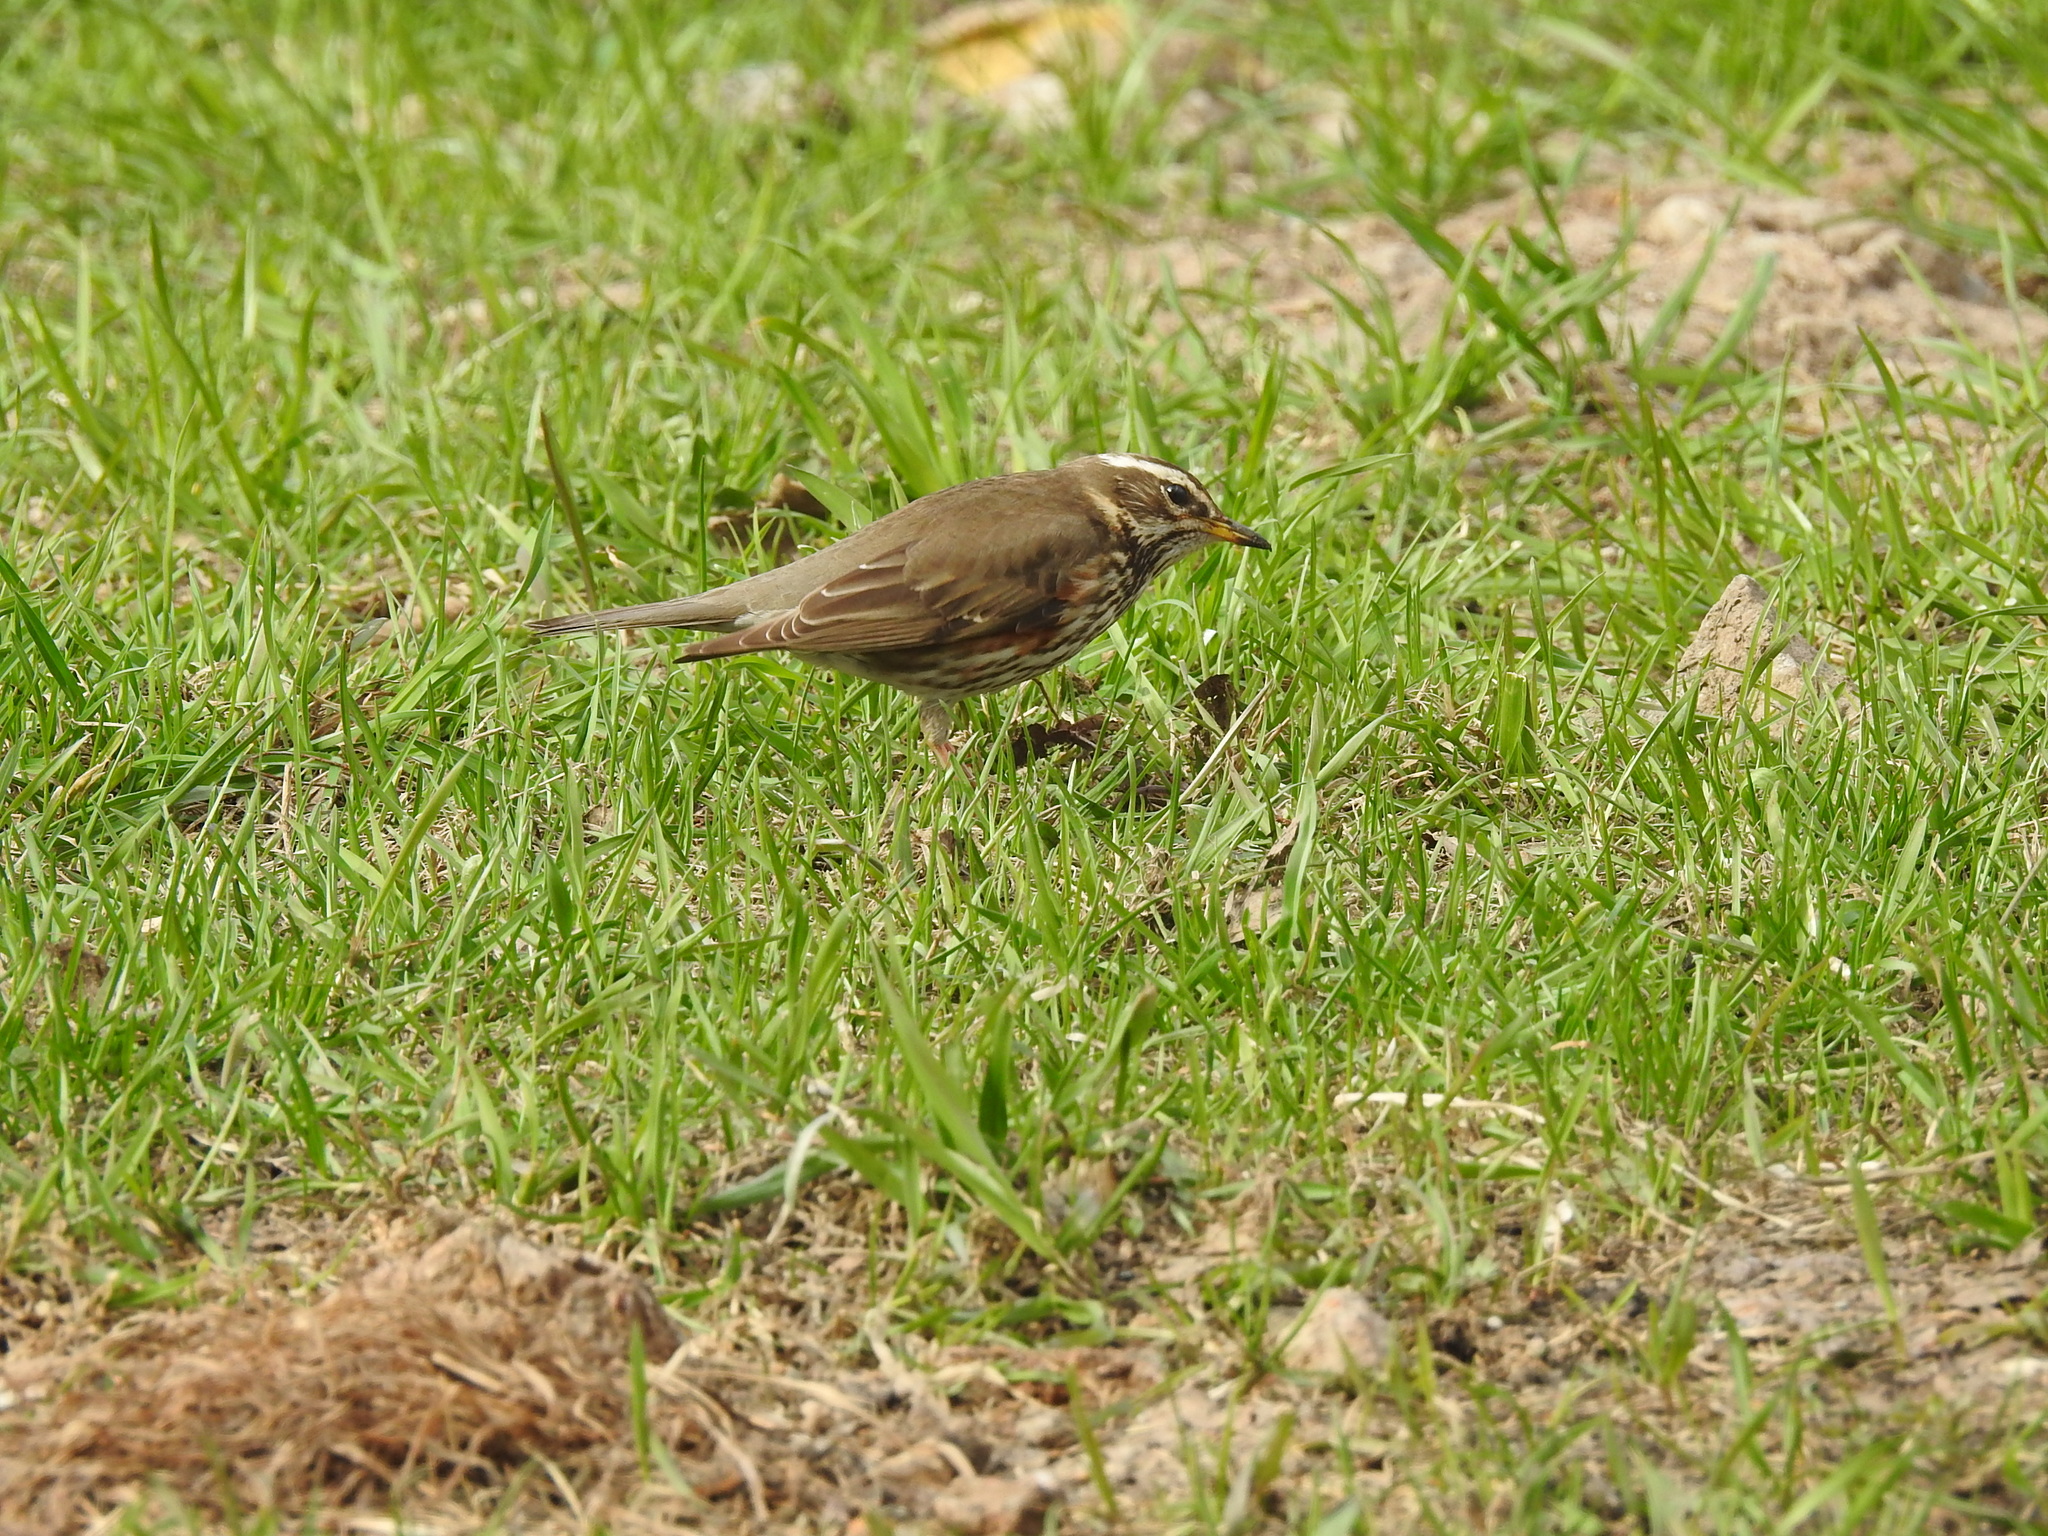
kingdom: Animalia
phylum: Chordata
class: Aves
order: Passeriformes
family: Turdidae
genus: Turdus
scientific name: Turdus iliacus
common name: Redwing
